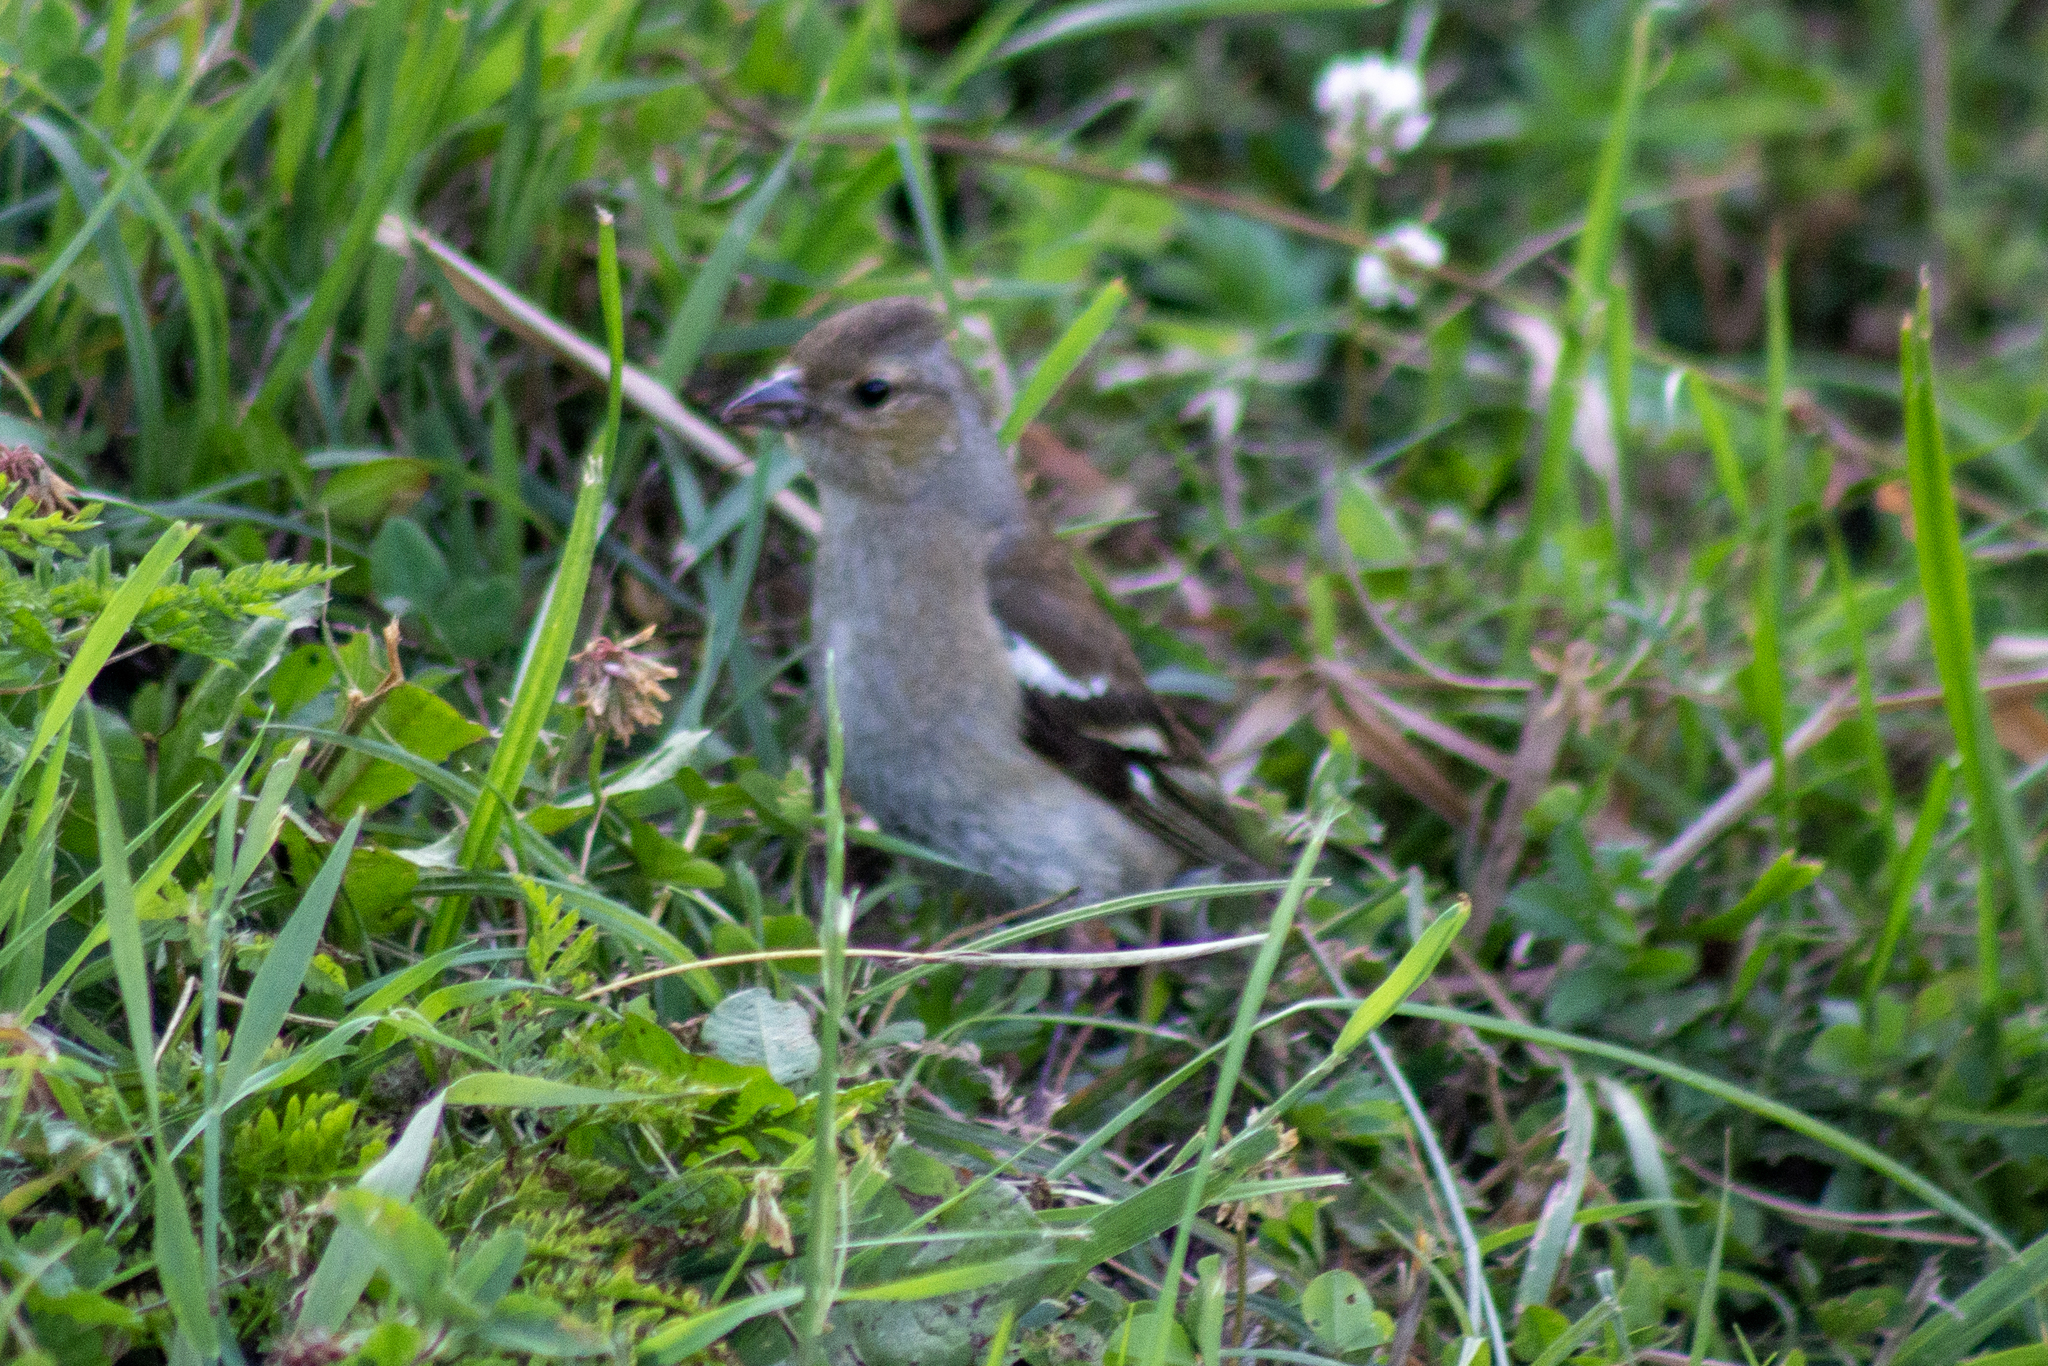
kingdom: Animalia
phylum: Chordata
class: Aves
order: Passeriformes
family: Fringillidae
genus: Fringilla
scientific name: Fringilla coelebs
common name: Common chaffinch
